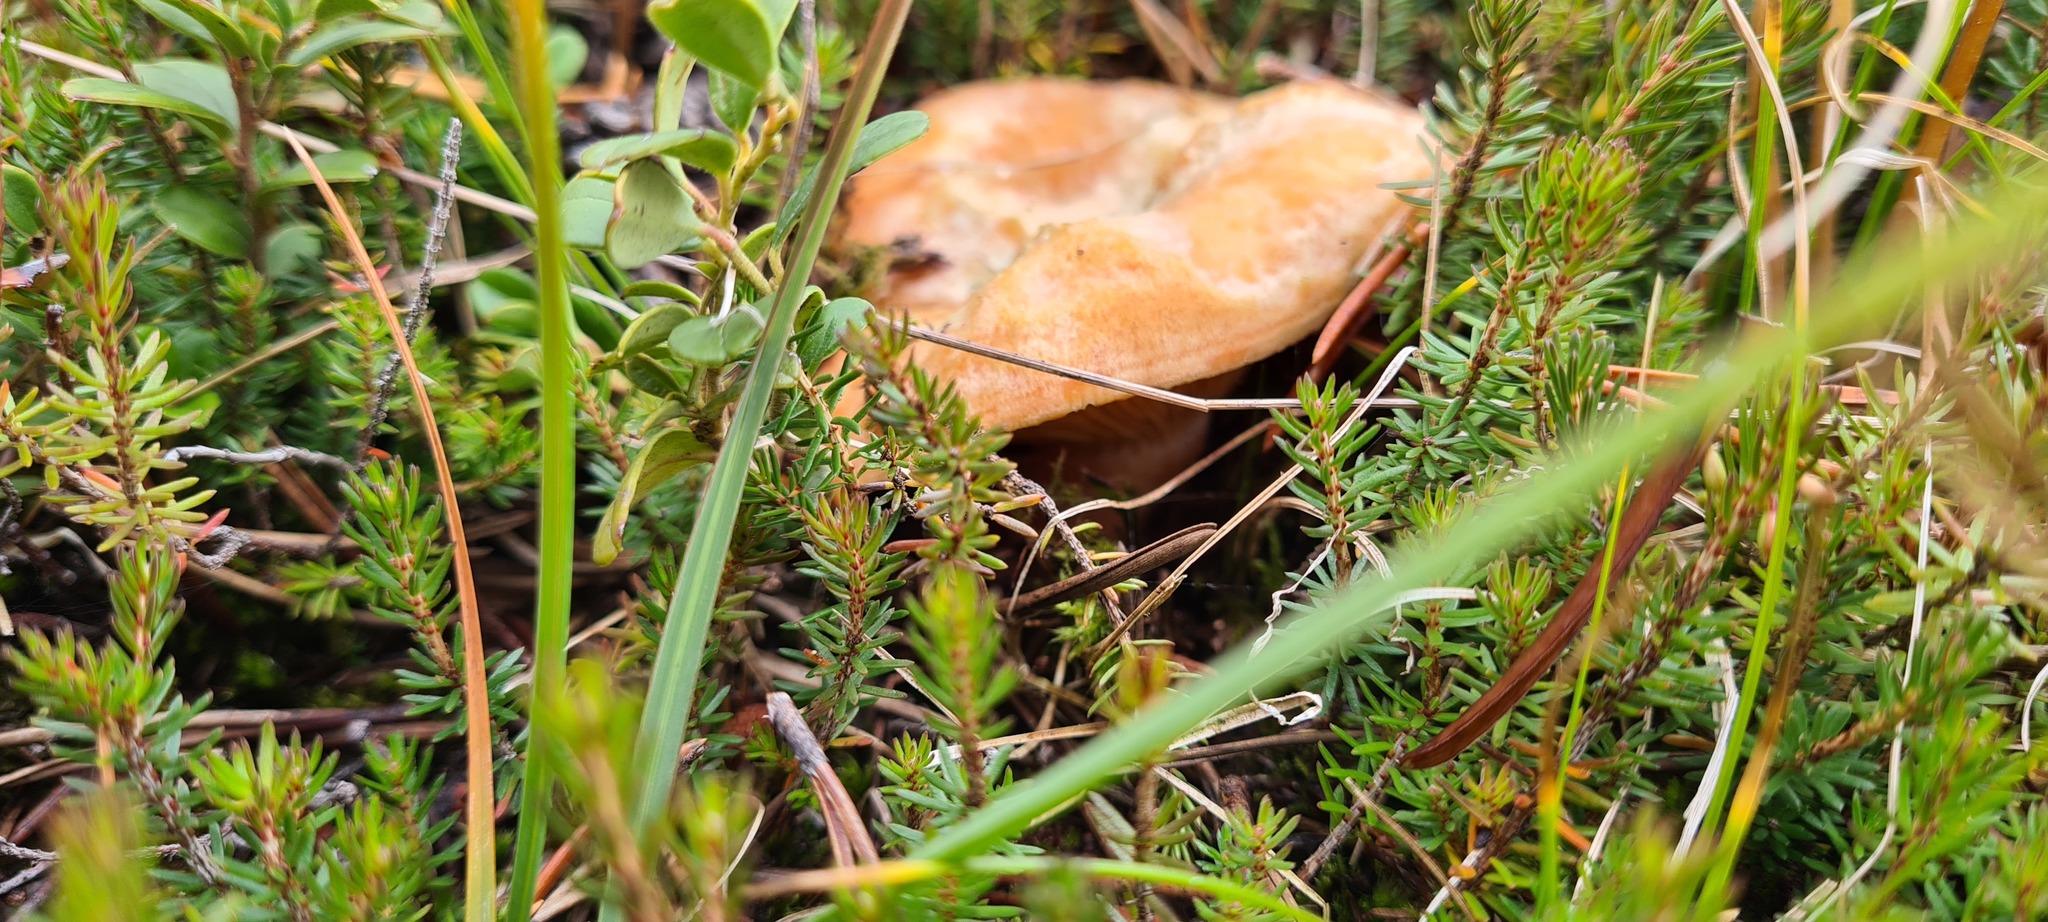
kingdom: Fungi
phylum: Basidiomycota
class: Agaricomycetes
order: Russulales
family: Russulaceae
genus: Lactarius
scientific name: Lactarius deliciosus
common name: Saffron milk-cap
